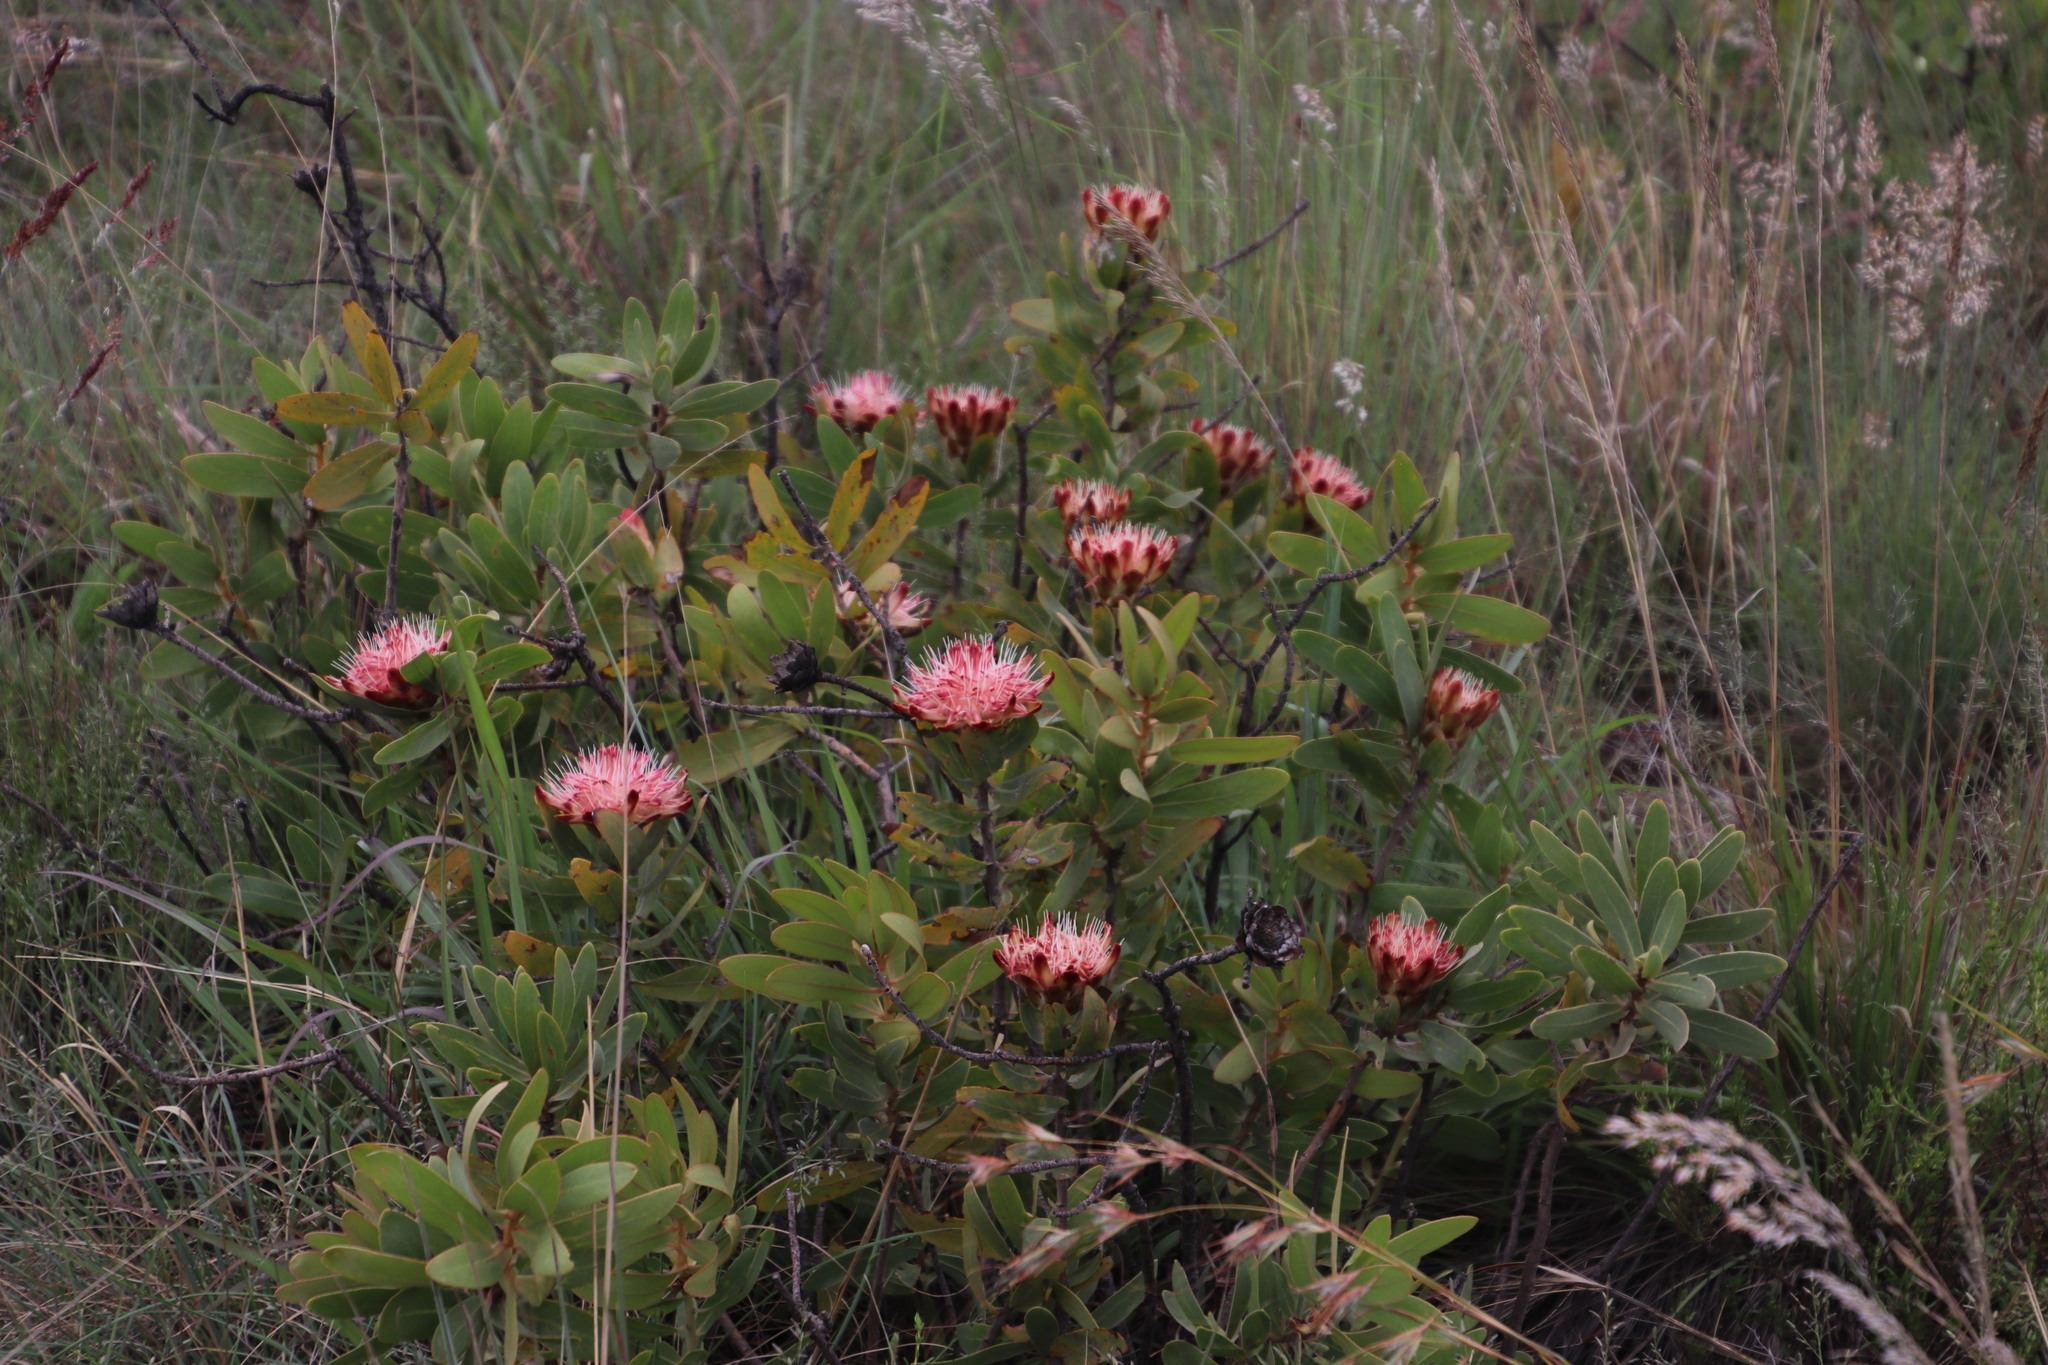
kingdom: Plantae
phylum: Tracheophyta
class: Magnoliopsida
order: Proteales
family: Proteaceae
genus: Protea
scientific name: Protea welwitschii
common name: Cluster-head protea
